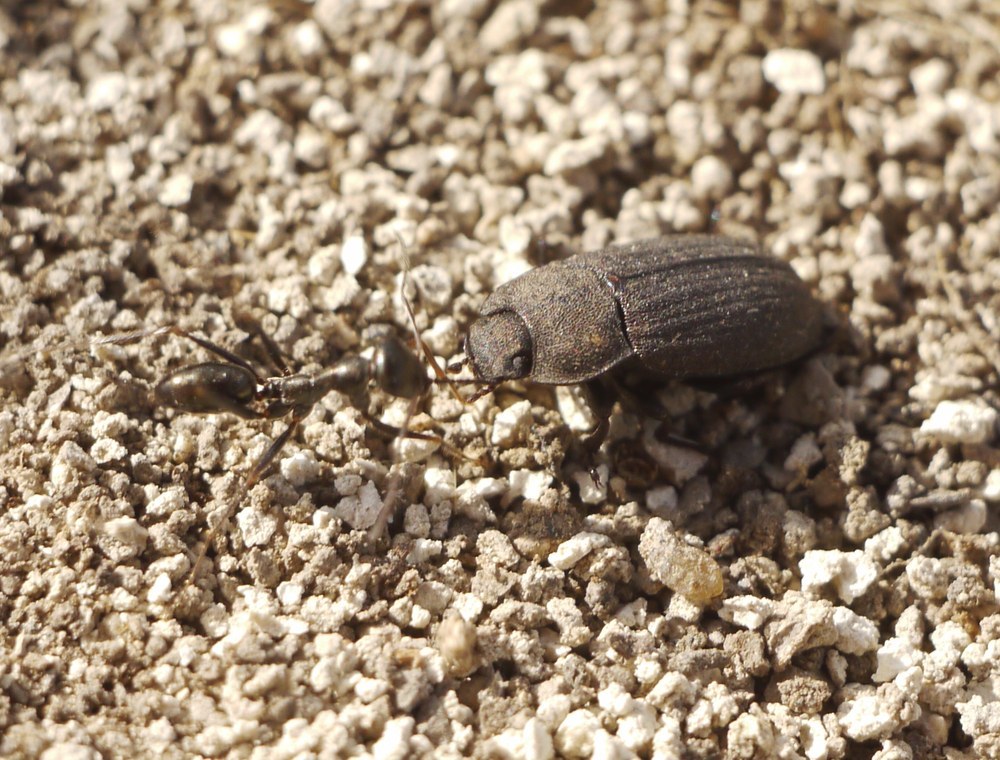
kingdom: Animalia
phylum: Arthropoda
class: Insecta
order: Hymenoptera
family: Formicidae
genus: Cataglyphis
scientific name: Cataglyphis aenescens
